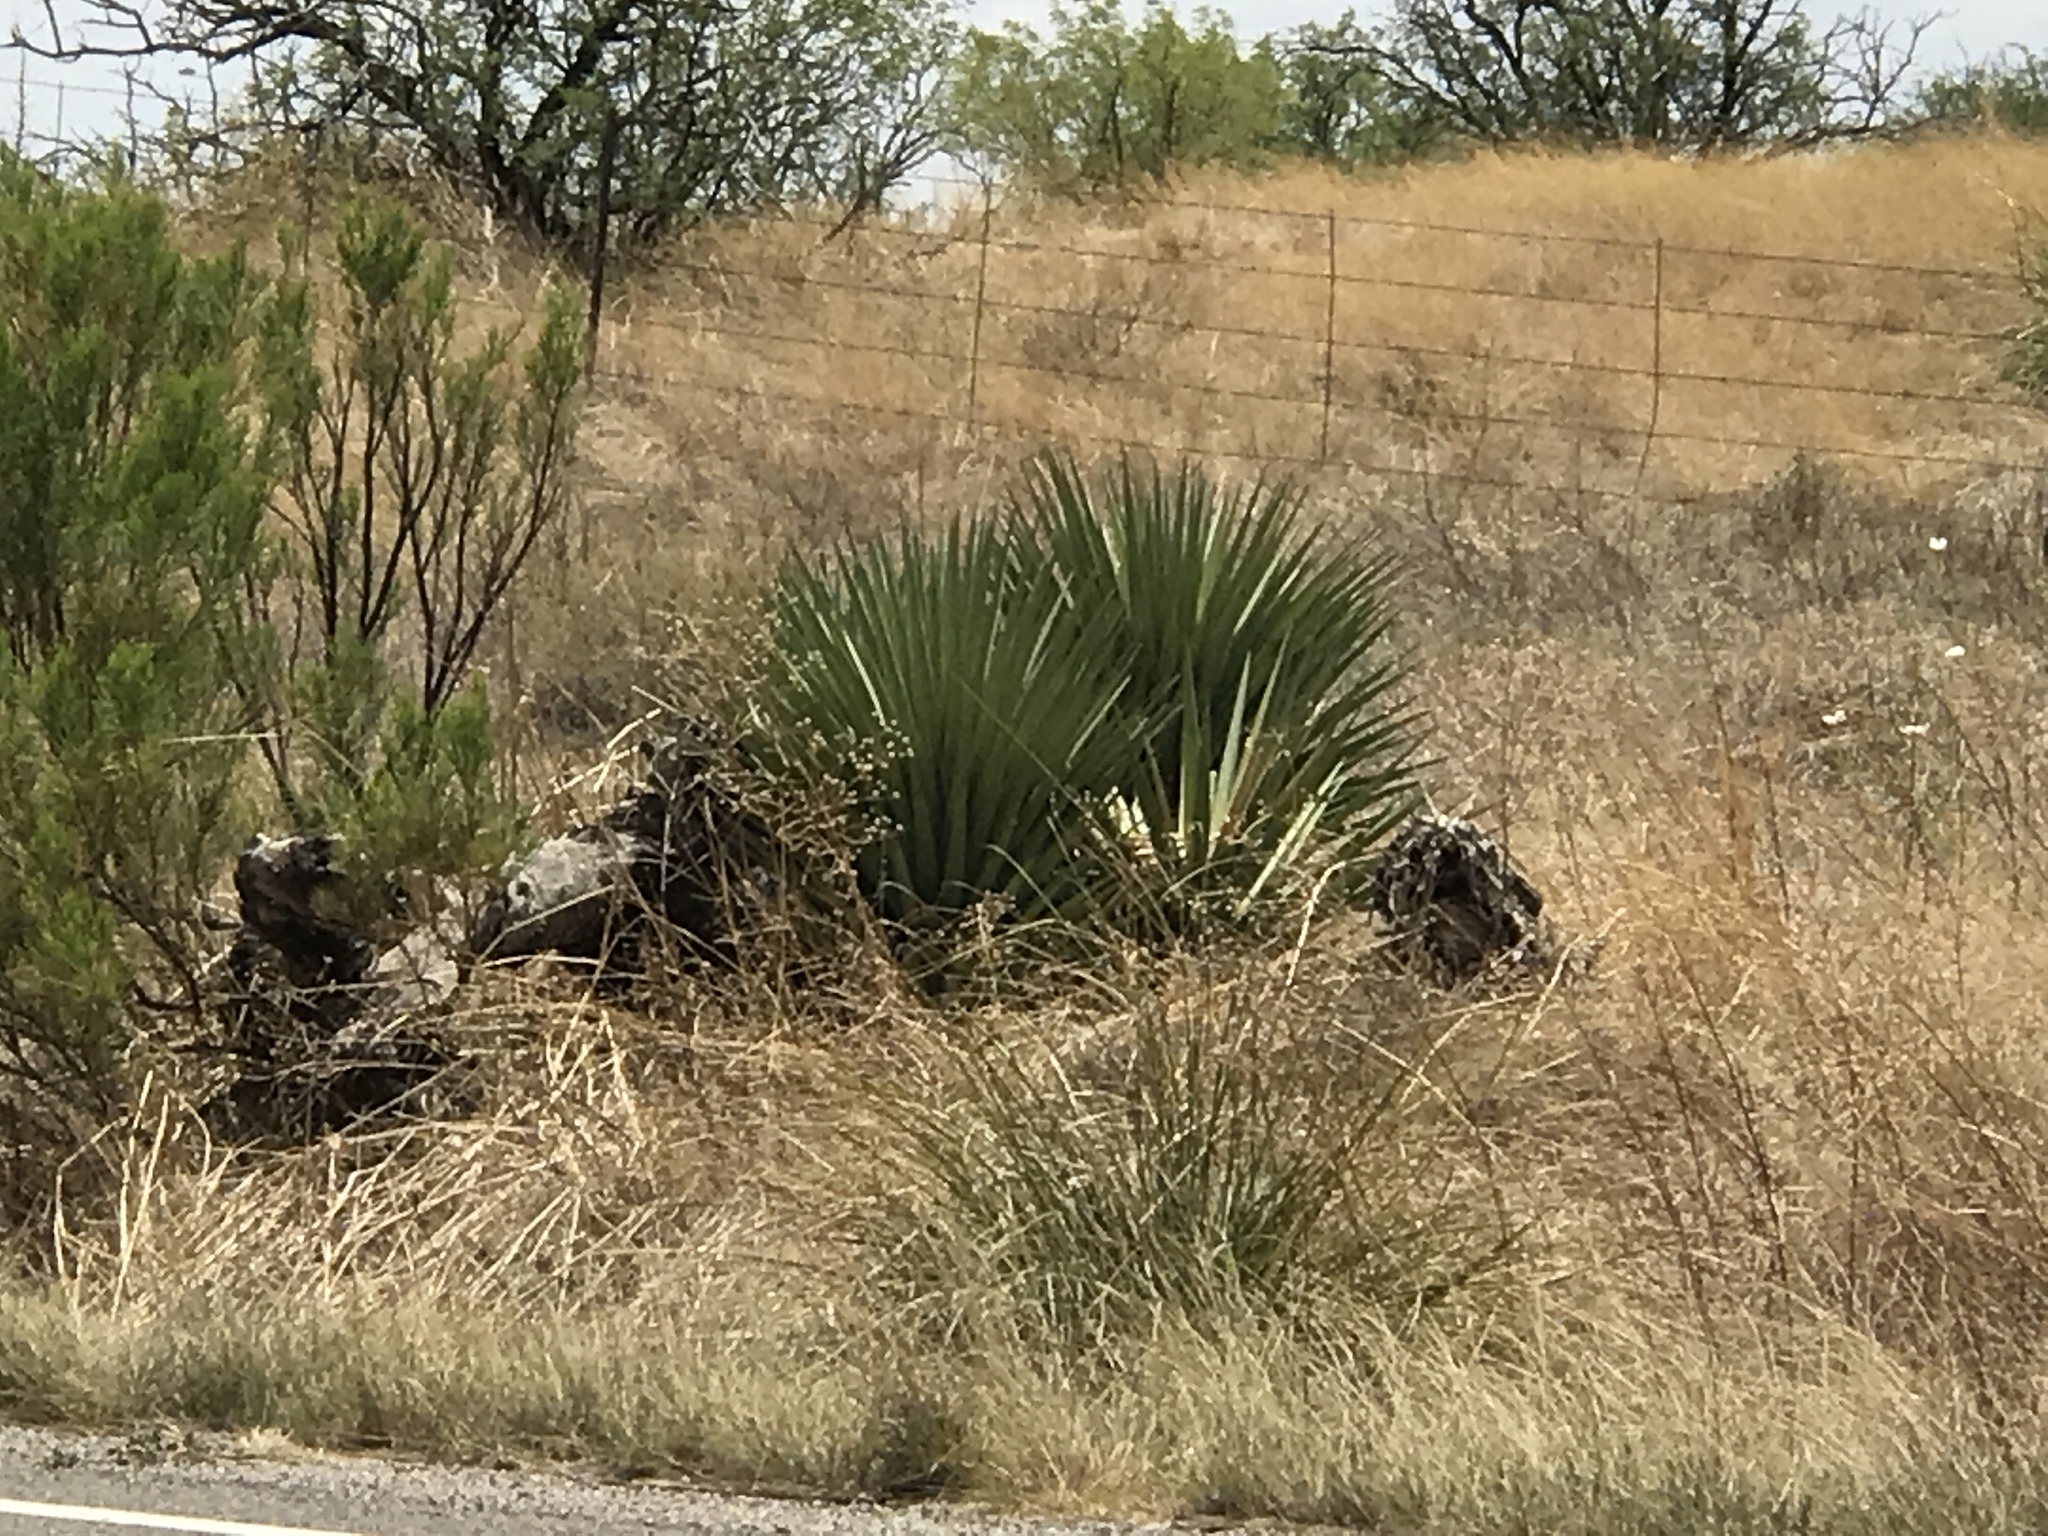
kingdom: Plantae
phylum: Tracheophyta
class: Liliopsida
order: Asparagales
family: Asparagaceae
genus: Agave
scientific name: Agave palmeri
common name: Palmer agave
